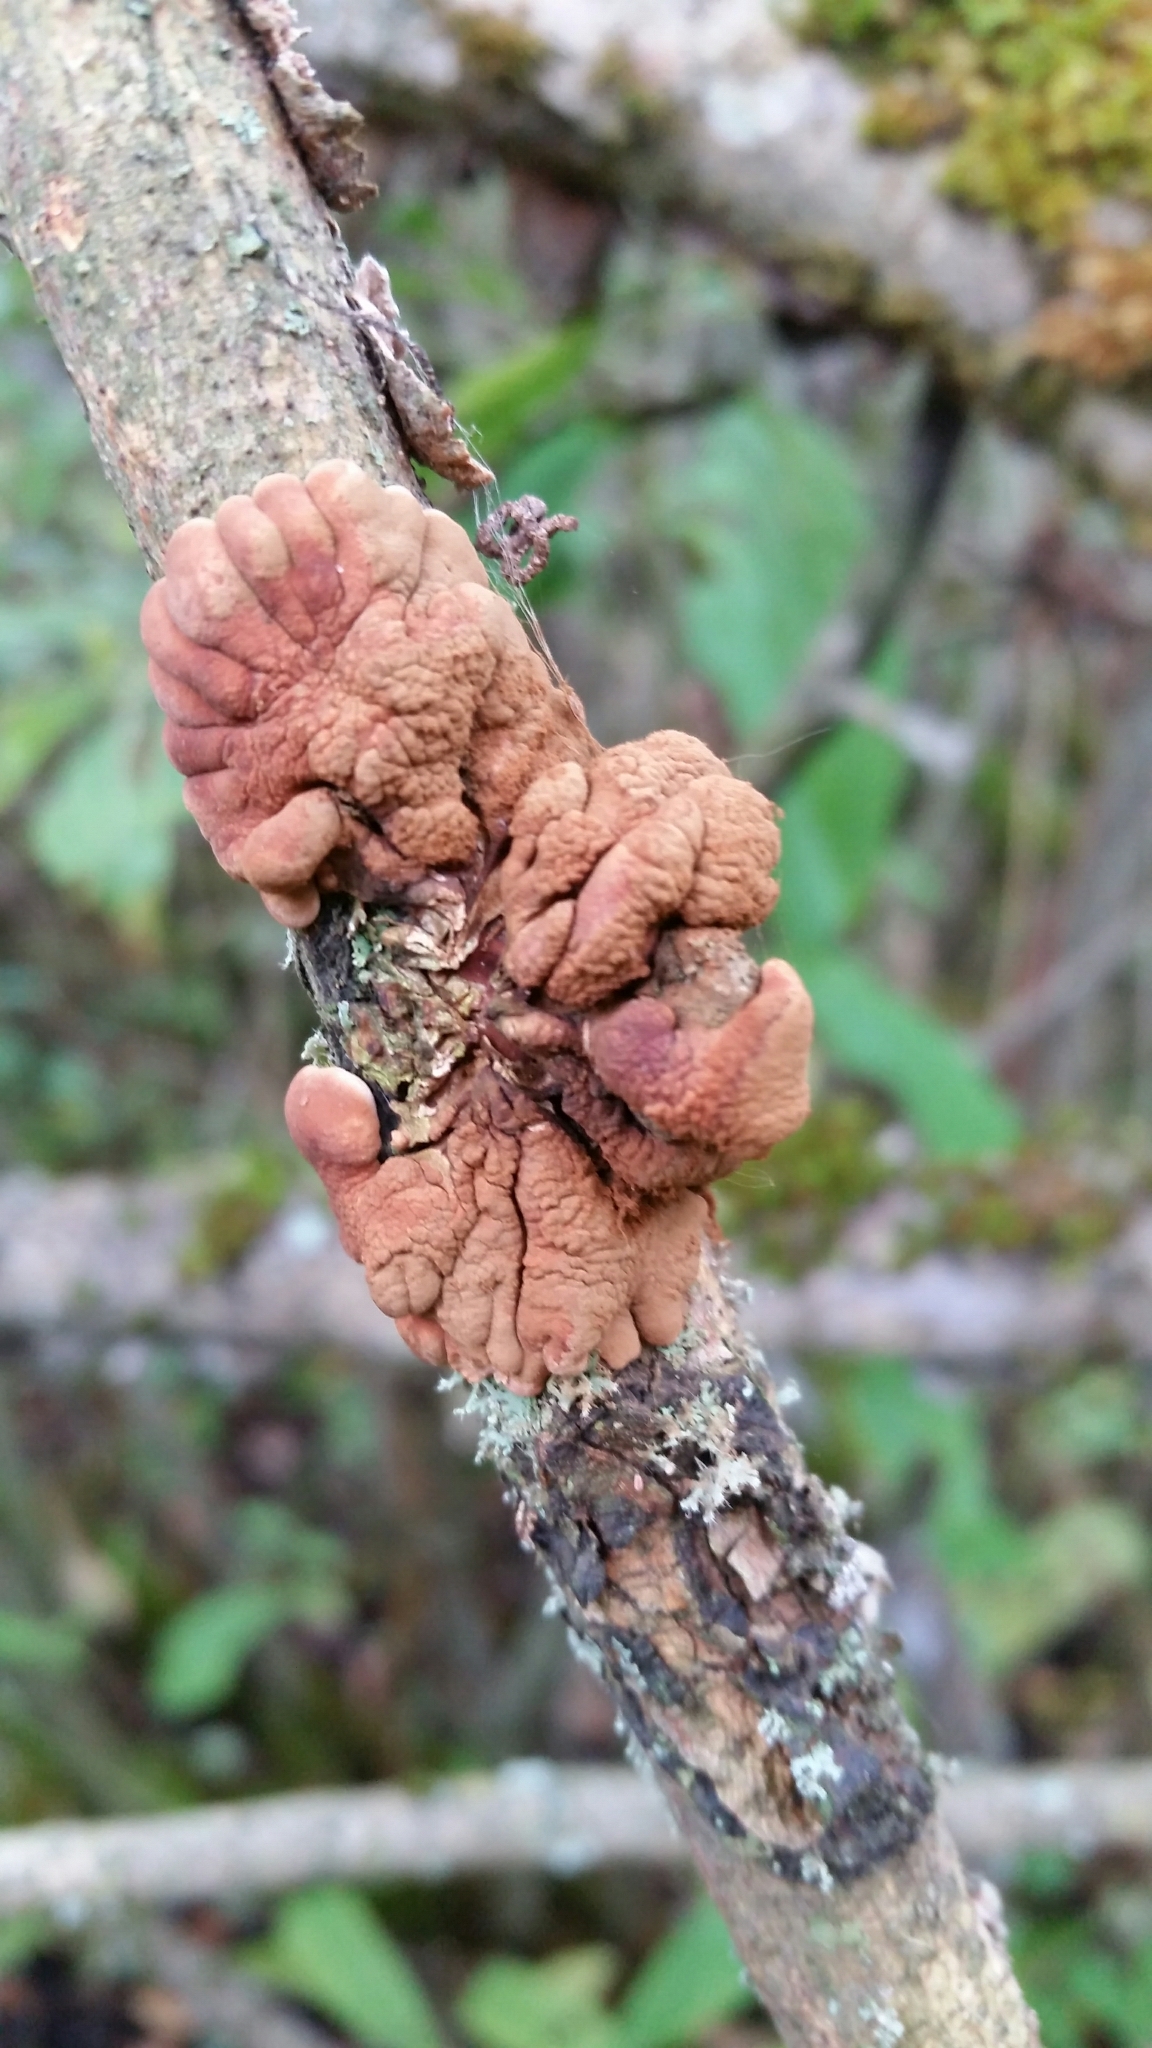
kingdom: Fungi
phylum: Ascomycota
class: Sordariomycetes
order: Hypocreales
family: Hypocreaceae
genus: Hypocreopsis
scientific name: Hypocreopsis lichenoides
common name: Willow gloves
